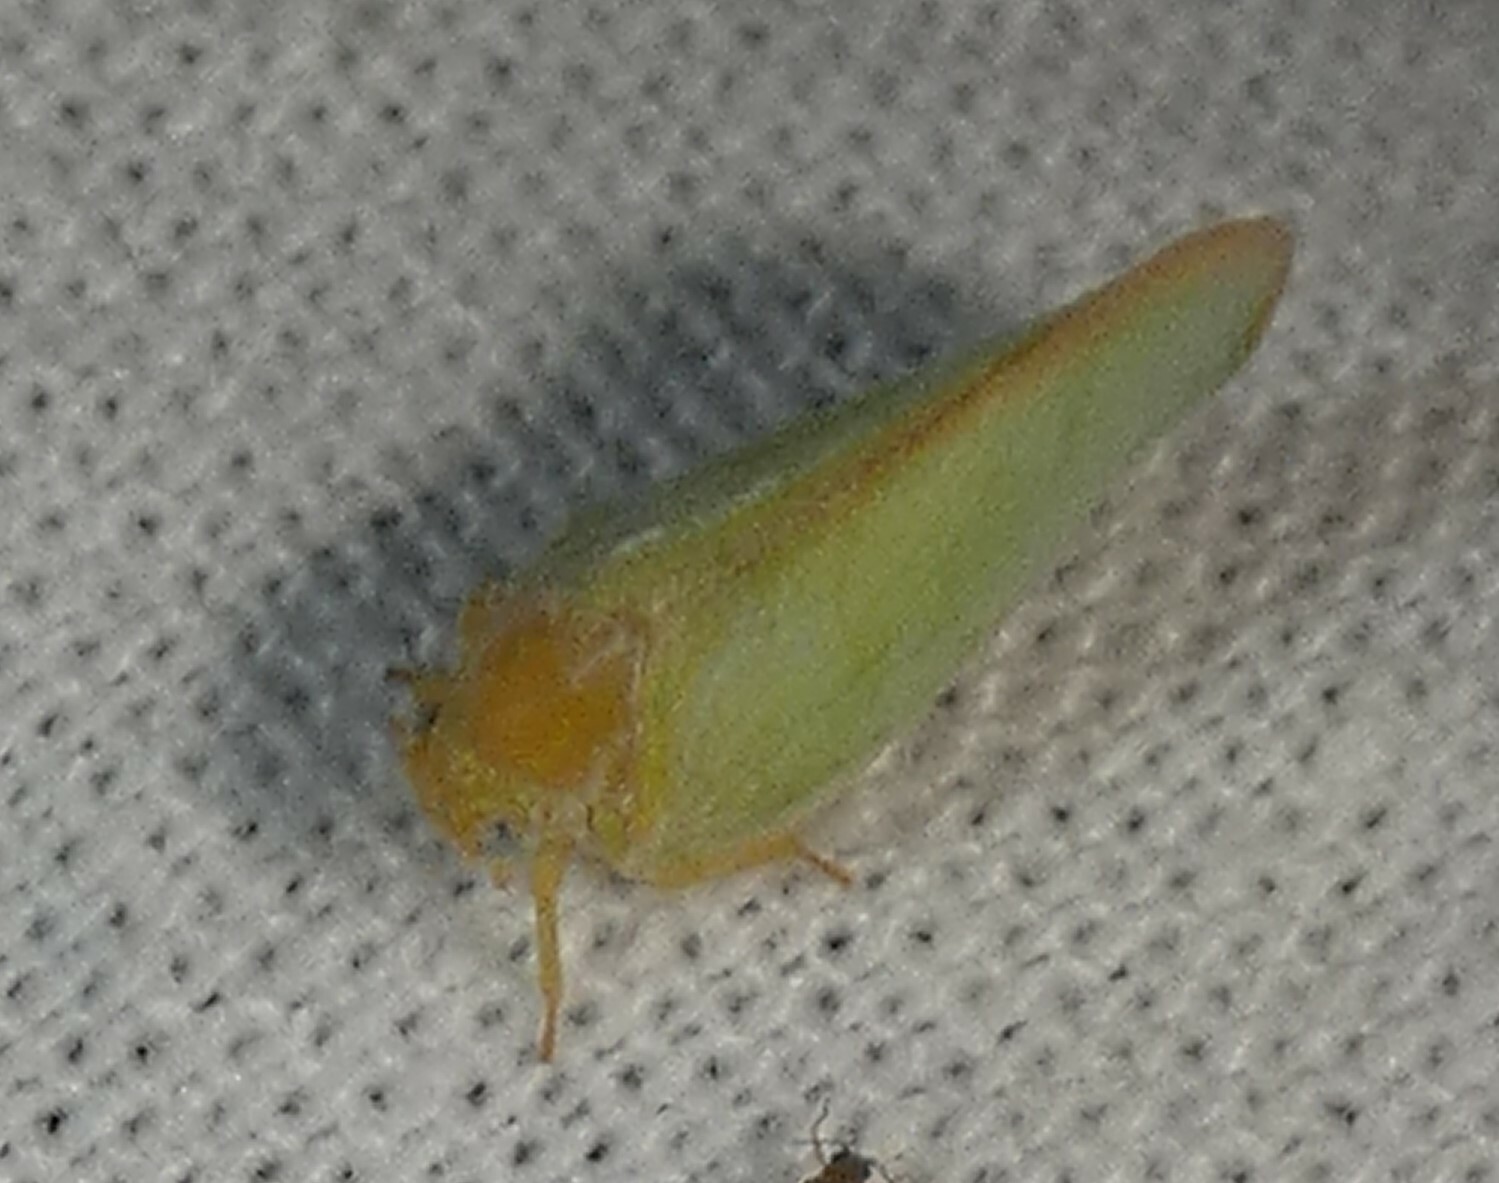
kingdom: Animalia
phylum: Arthropoda
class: Insecta
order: Hemiptera
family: Flatidae
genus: Ormenoides
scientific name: Ormenoides venusta
